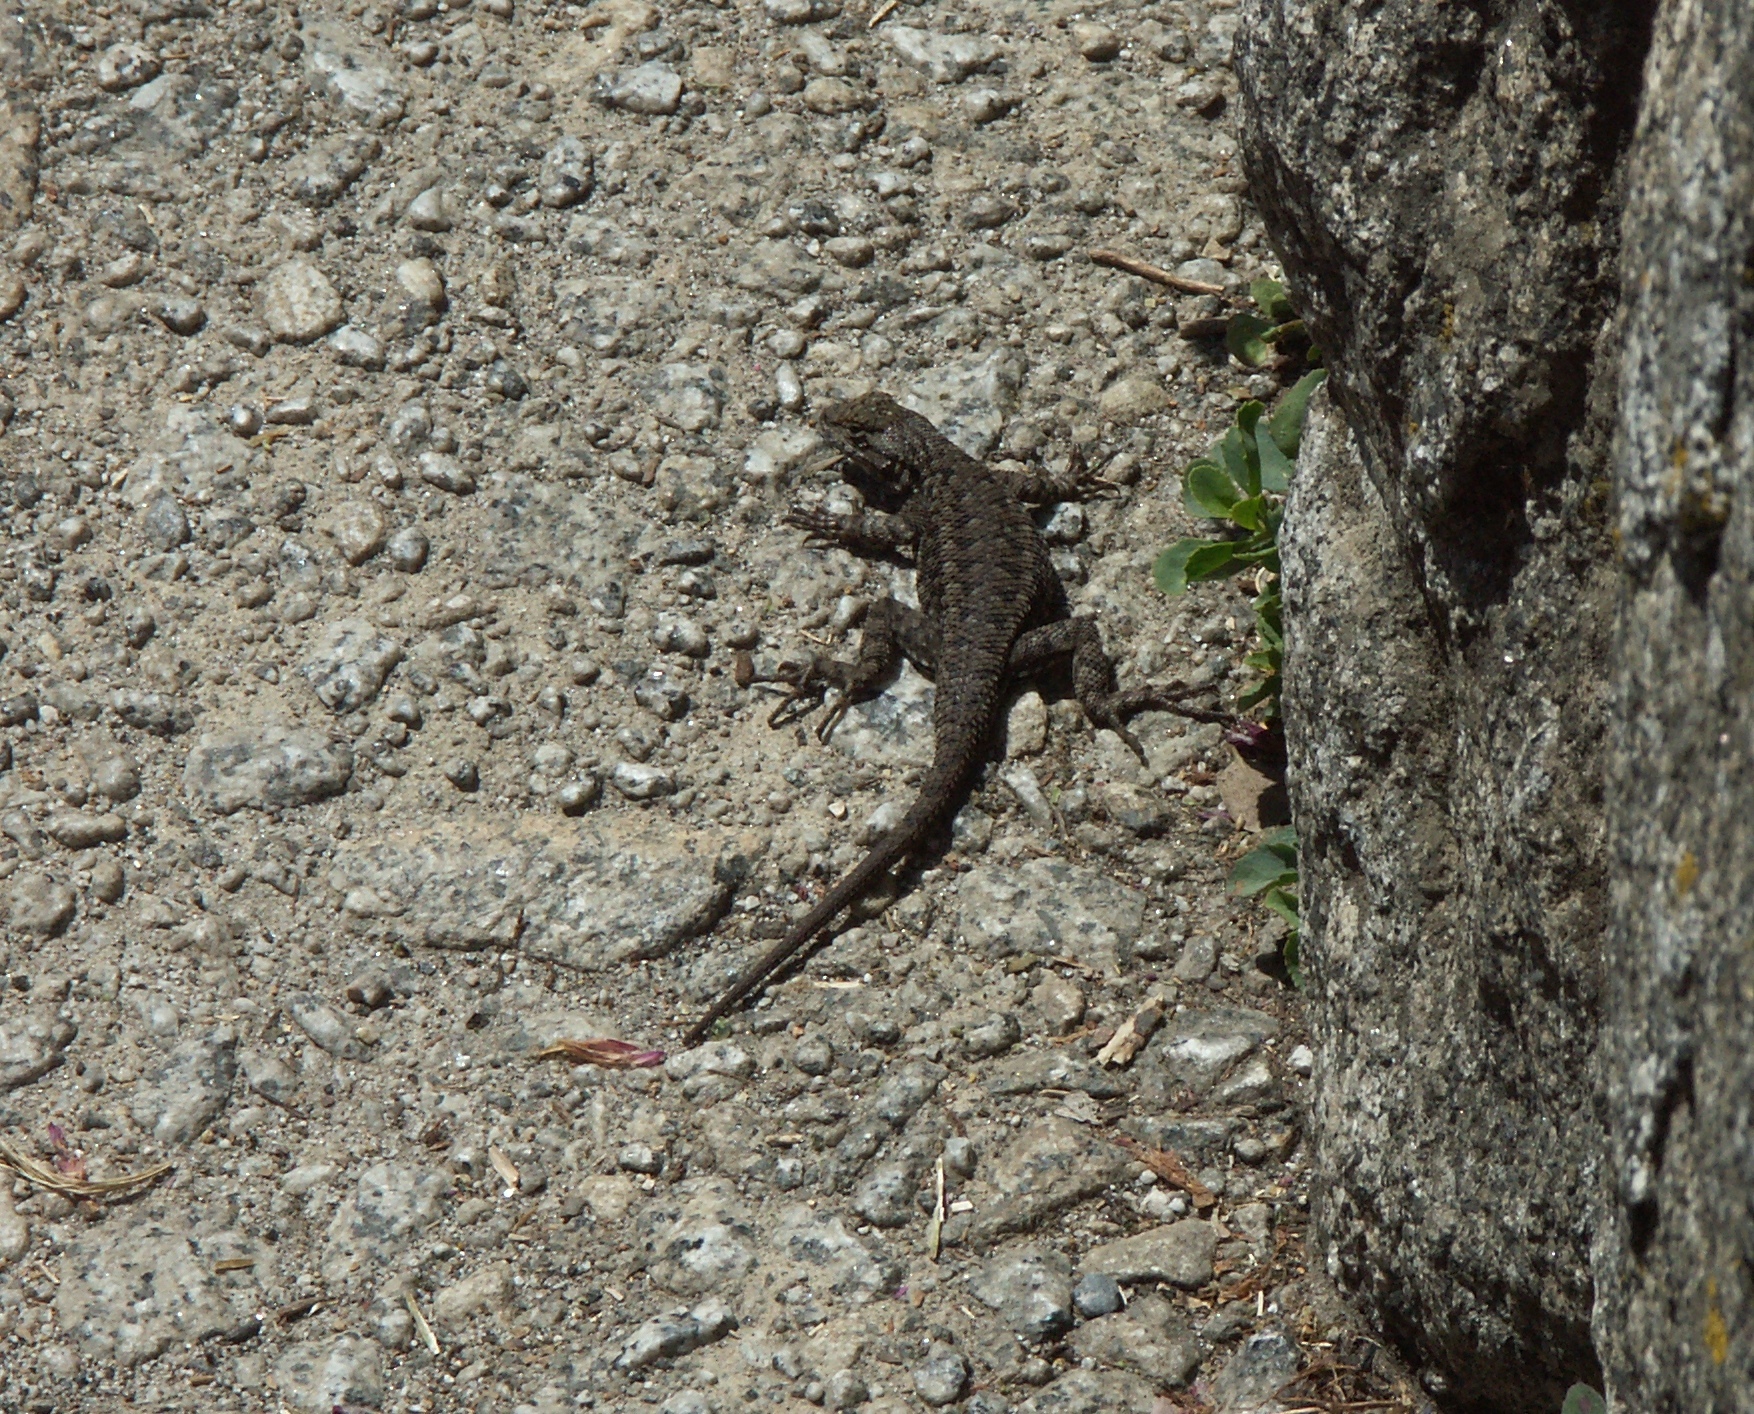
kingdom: Animalia
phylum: Chordata
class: Squamata
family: Phrynosomatidae
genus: Sceloporus
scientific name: Sceloporus graciosus
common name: Sagebrush lizard
